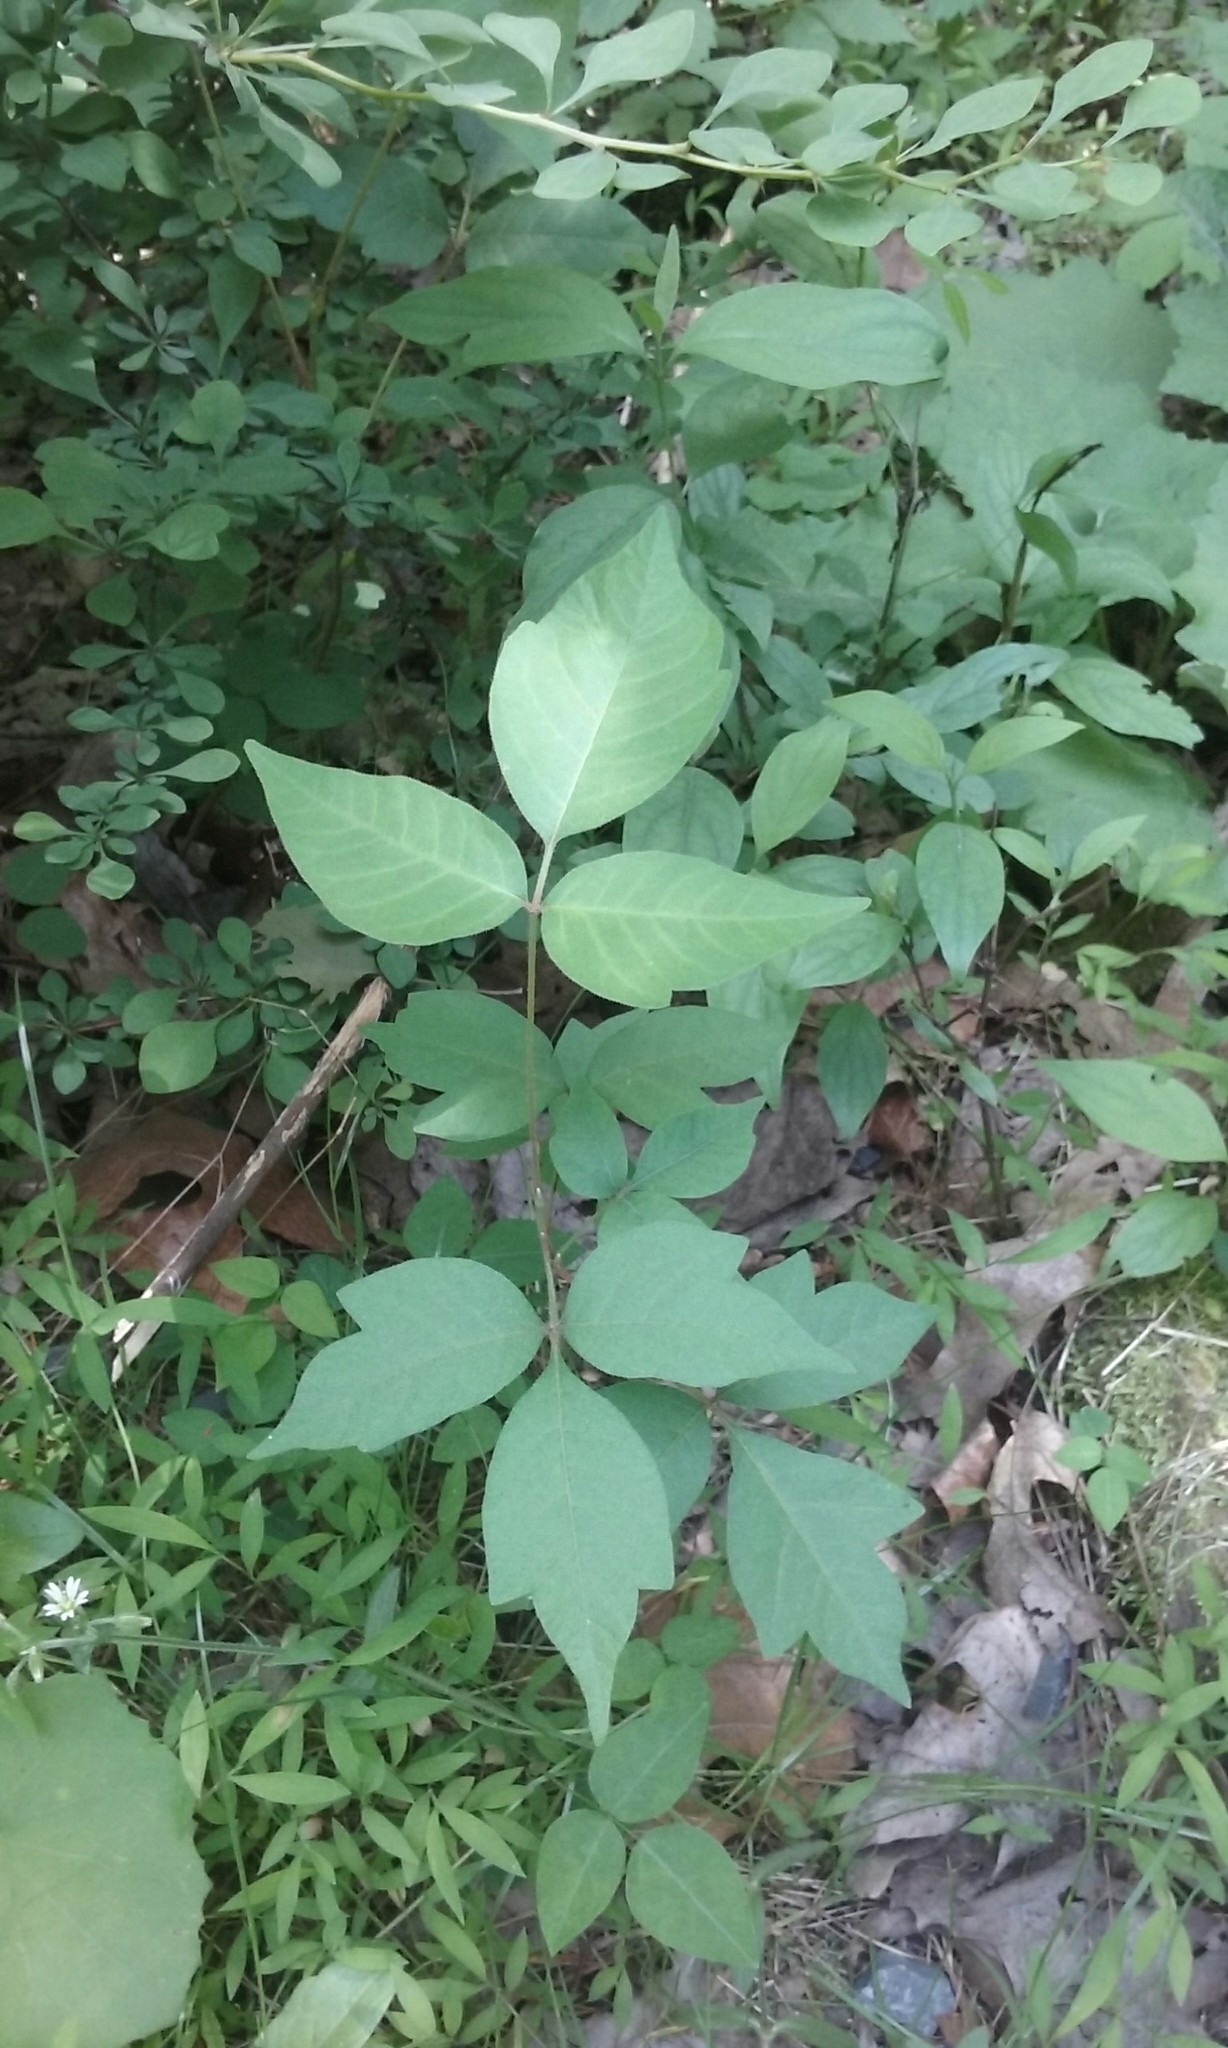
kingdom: Plantae
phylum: Tracheophyta
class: Magnoliopsida
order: Sapindales
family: Anacardiaceae
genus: Toxicodendron
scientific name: Toxicodendron radicans
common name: Poison ivy
